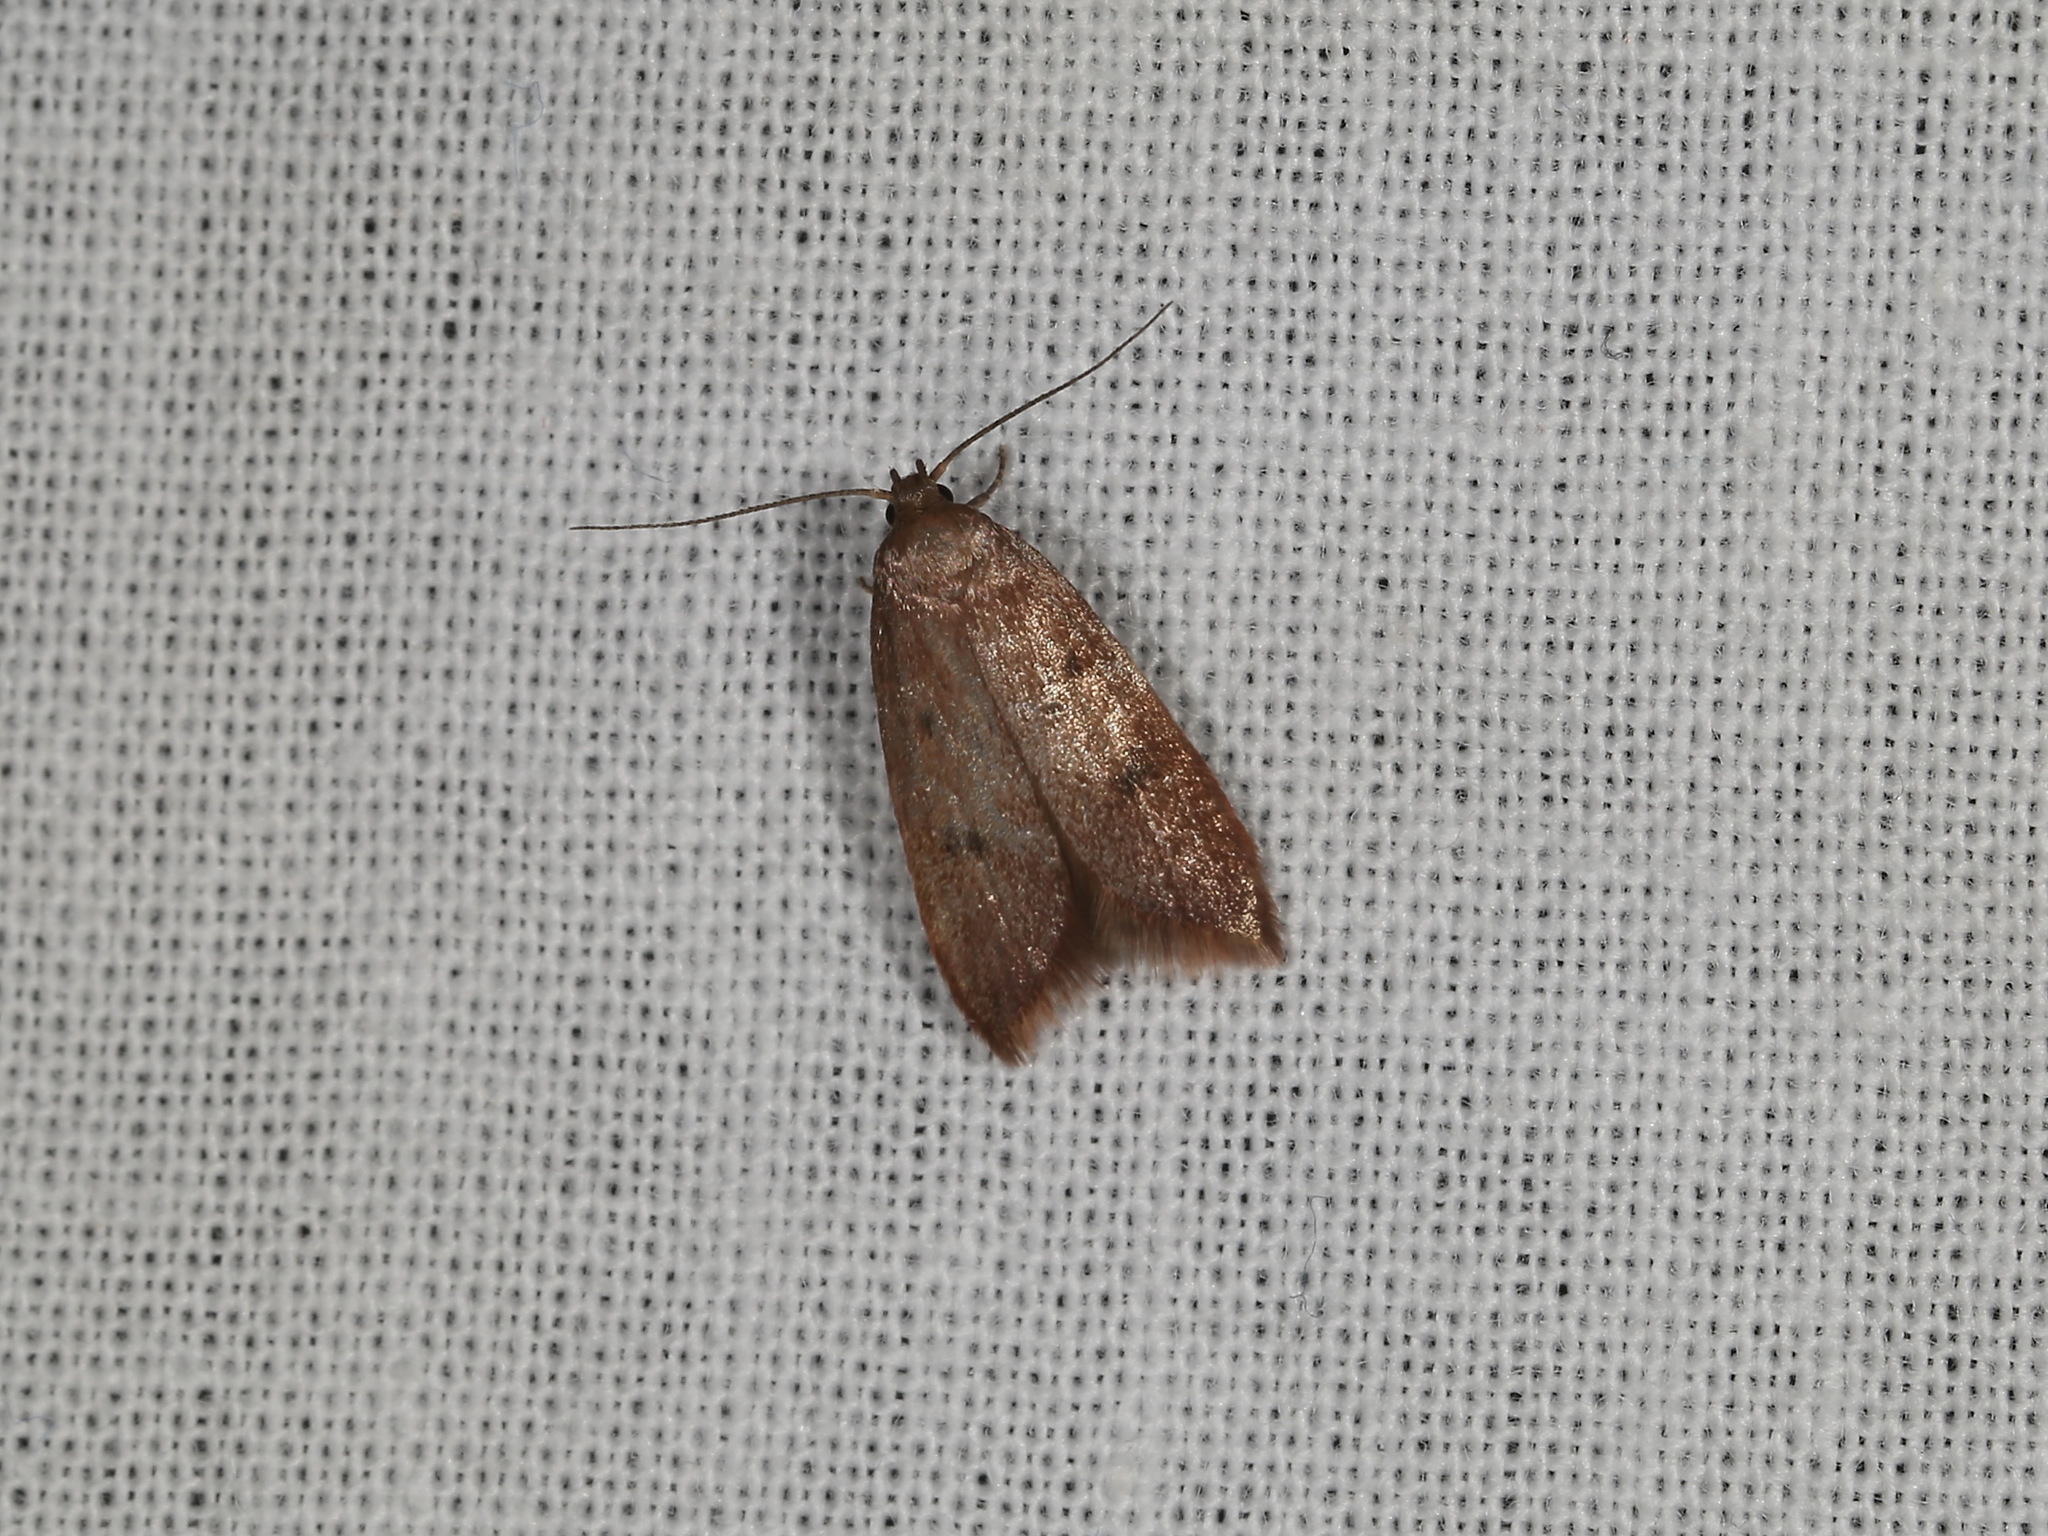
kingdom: Animalia
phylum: Arthropoda
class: Insecta
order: Lepidoptera
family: Oecophoridae
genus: Tachystola
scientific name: Tachystola acroxantha
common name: Ruddy streak
